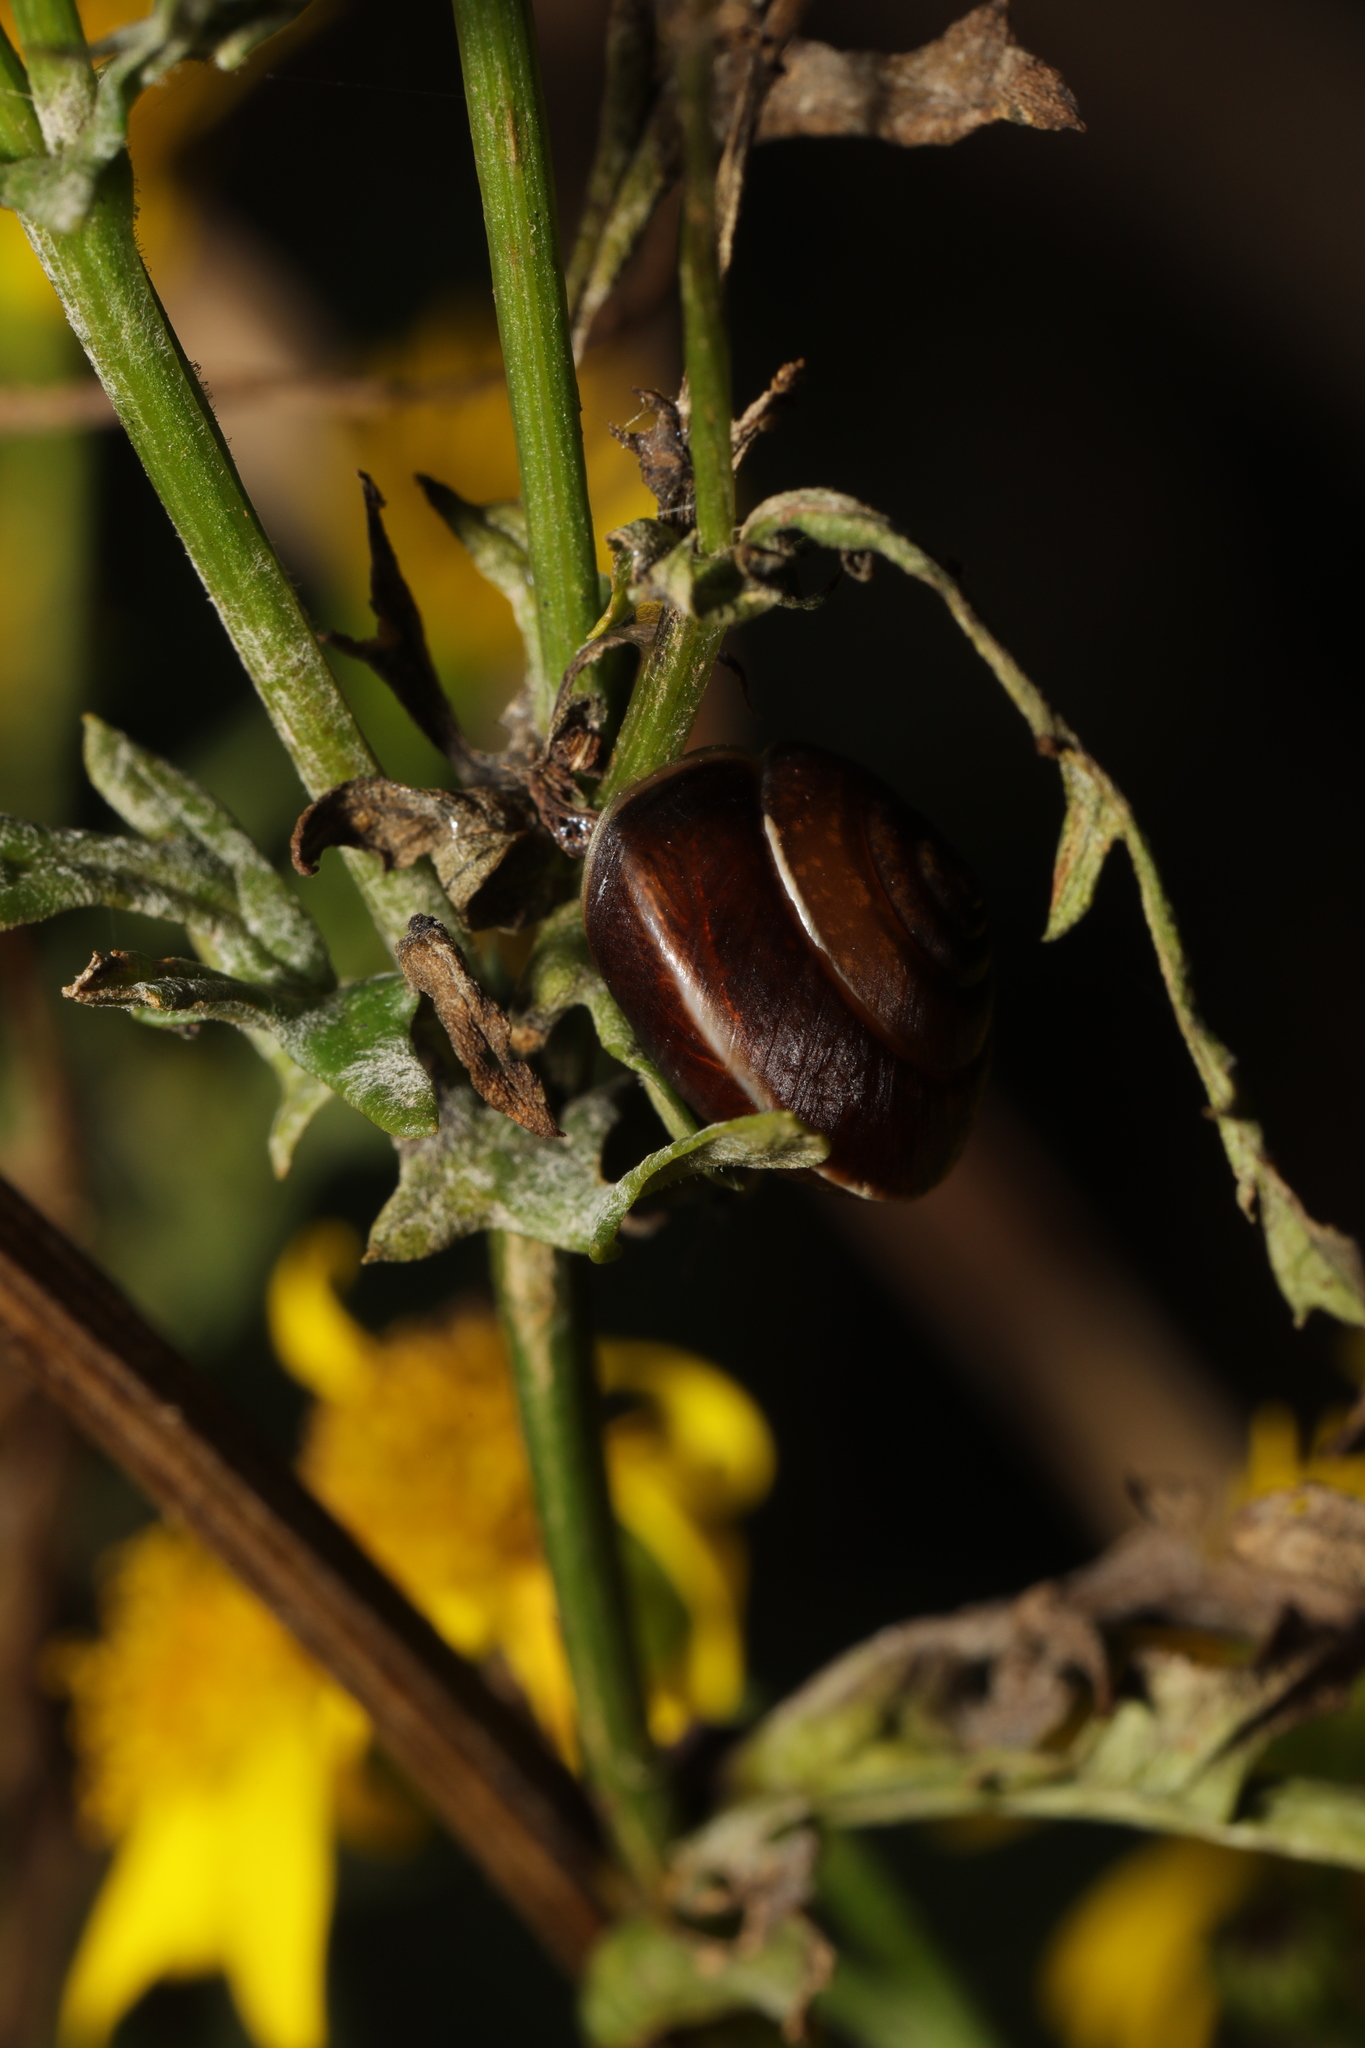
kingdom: Animalia
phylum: Mollusca
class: Gastropoda
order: Stylommatophora
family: Hygromiidae
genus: Hygromia
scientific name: Hygromia cinctella
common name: Girdled snail
